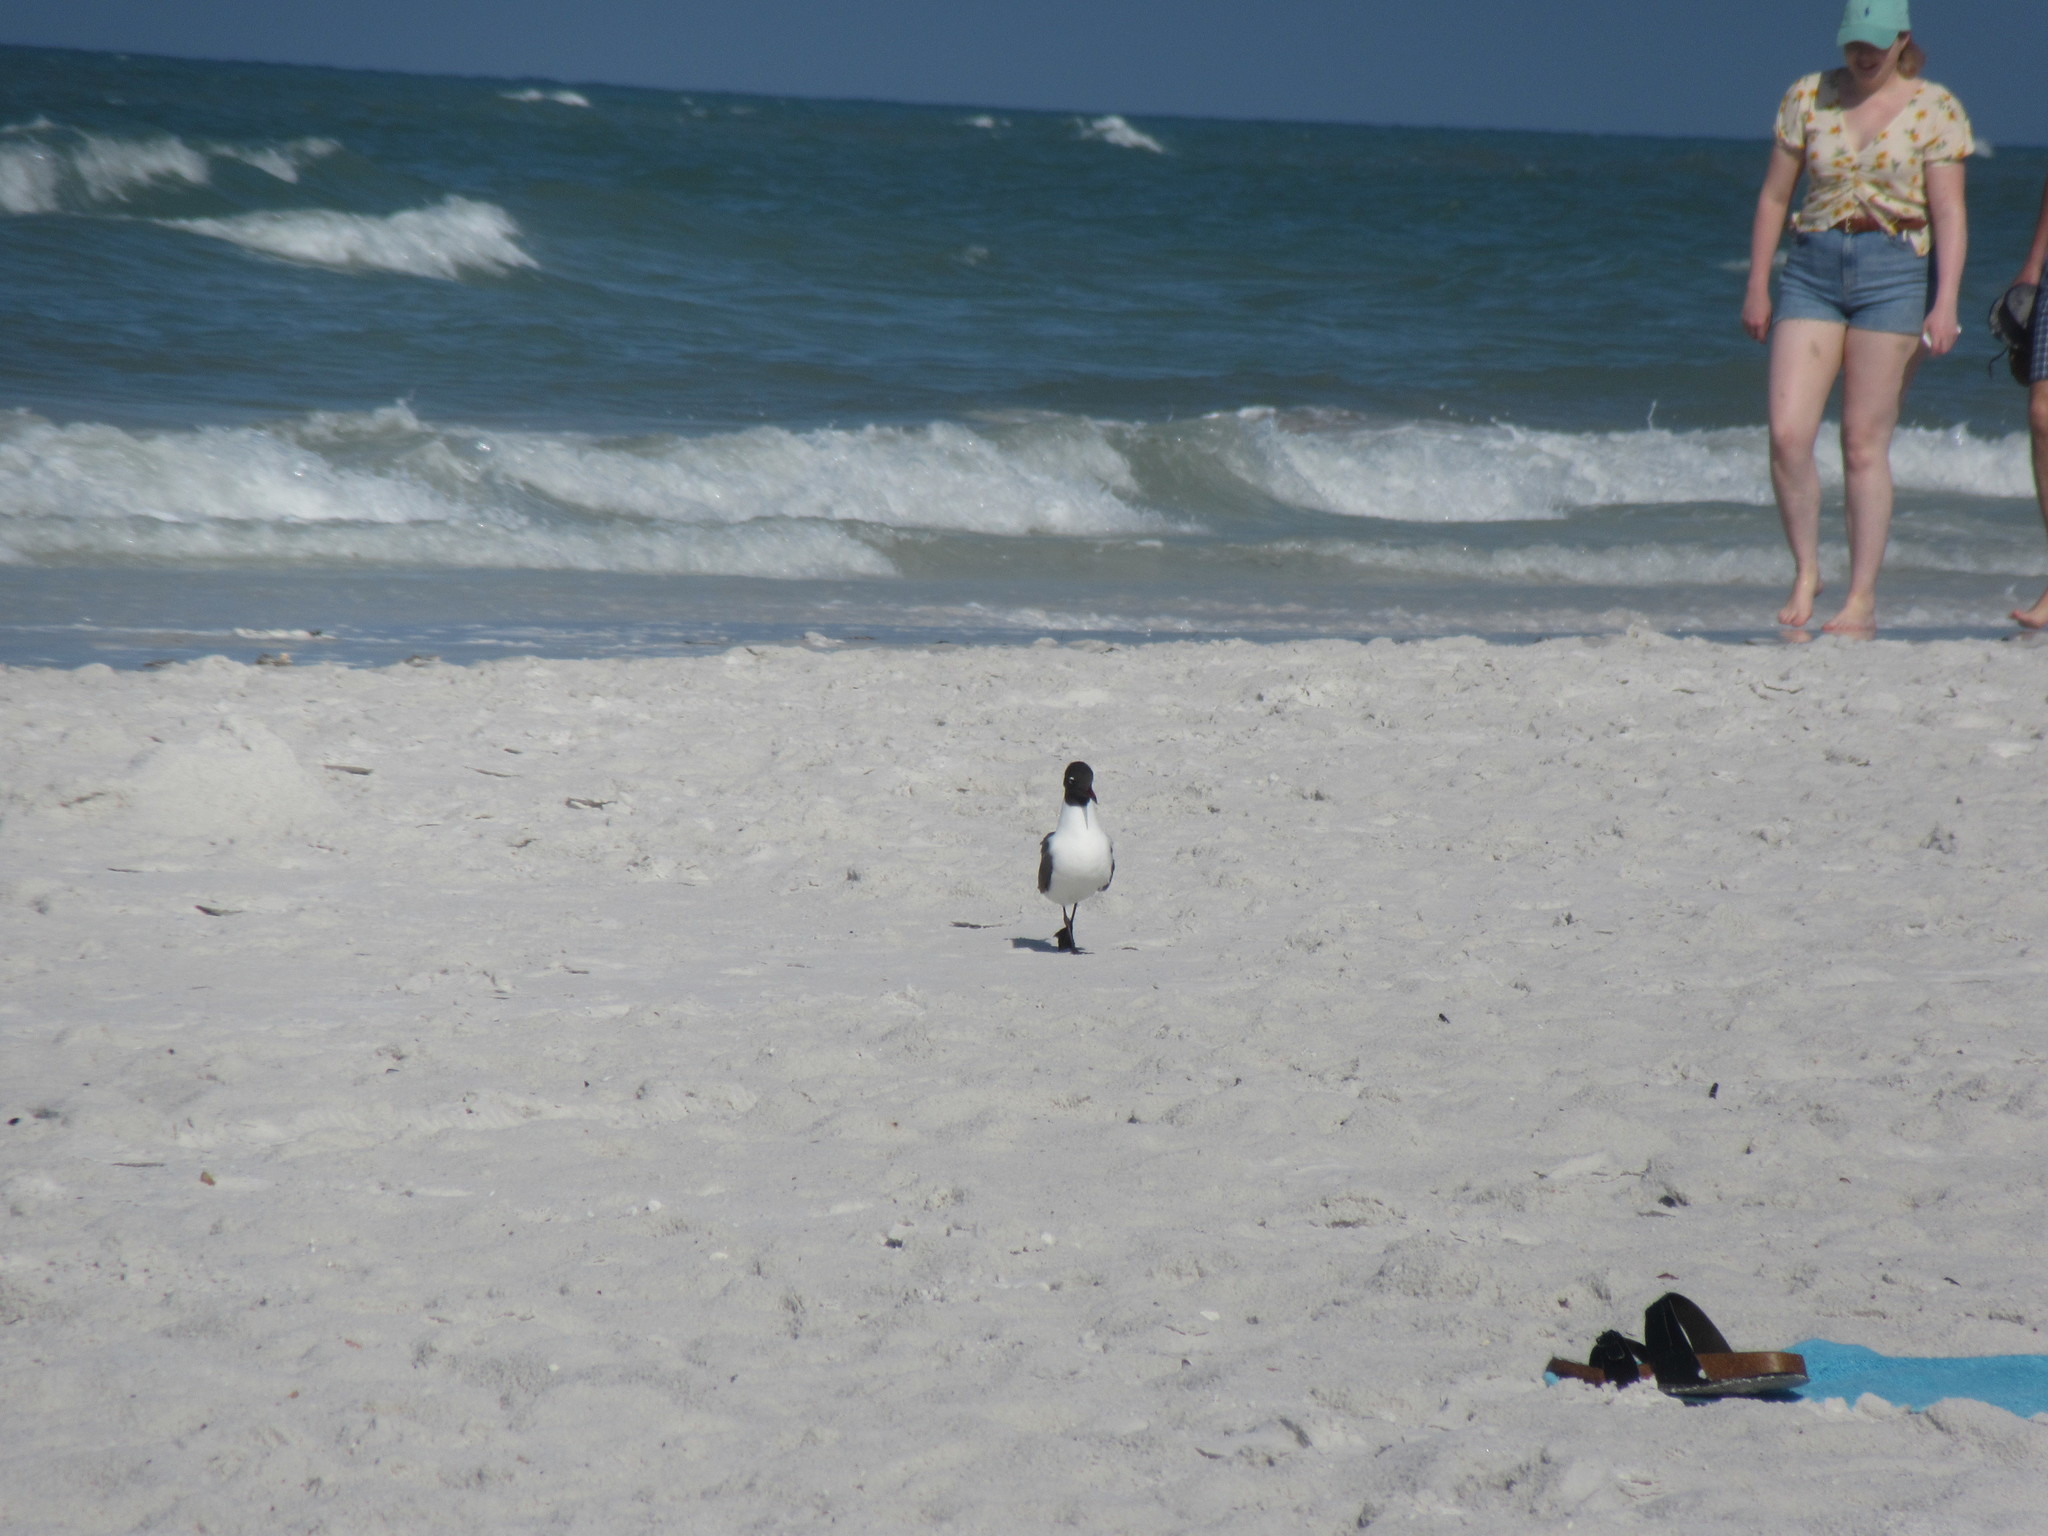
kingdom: Animalia
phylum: Chordata
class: Aves
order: Charadriiformes
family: Laridae
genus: Leucophaeus
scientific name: Leucophaeus atricilla
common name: Laughing gull
